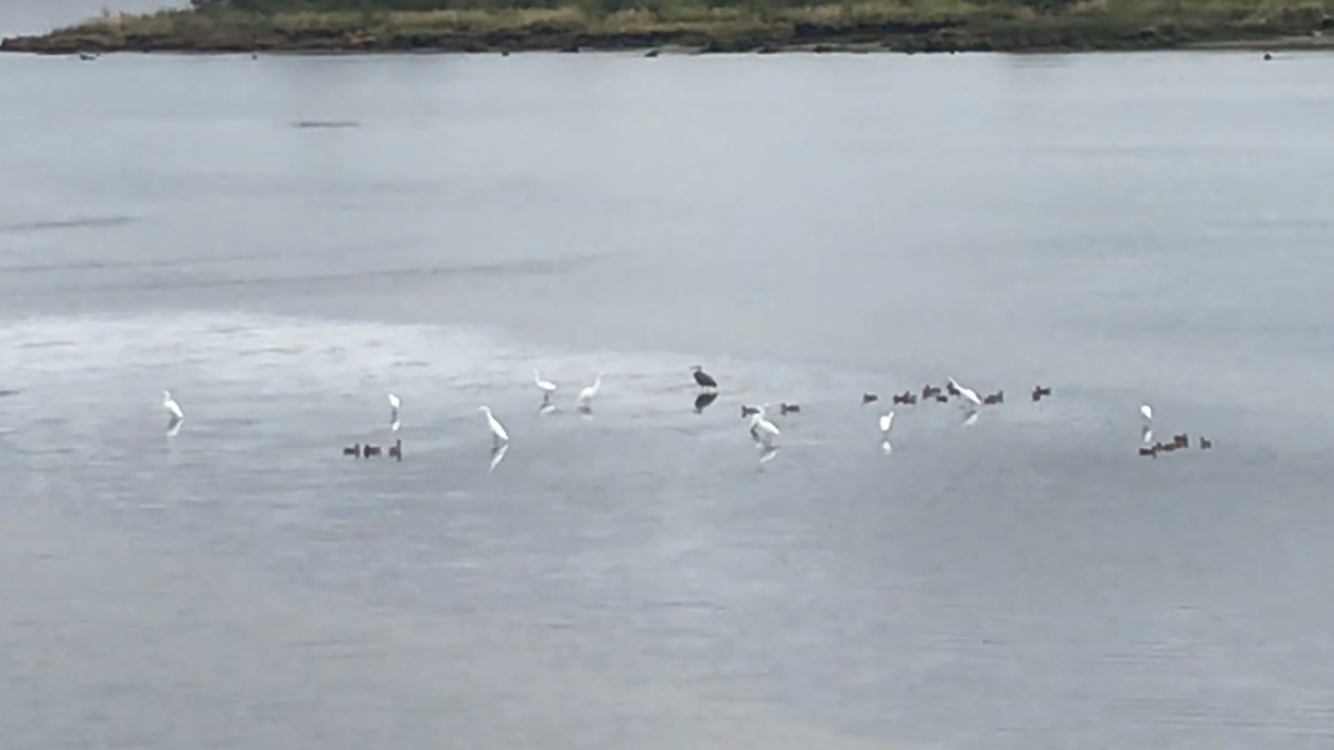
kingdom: Animalia
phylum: Chordata
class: Aves
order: Pelecaniformes
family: Ardeidae
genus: Ardea
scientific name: Ardea alba
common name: Great egret
